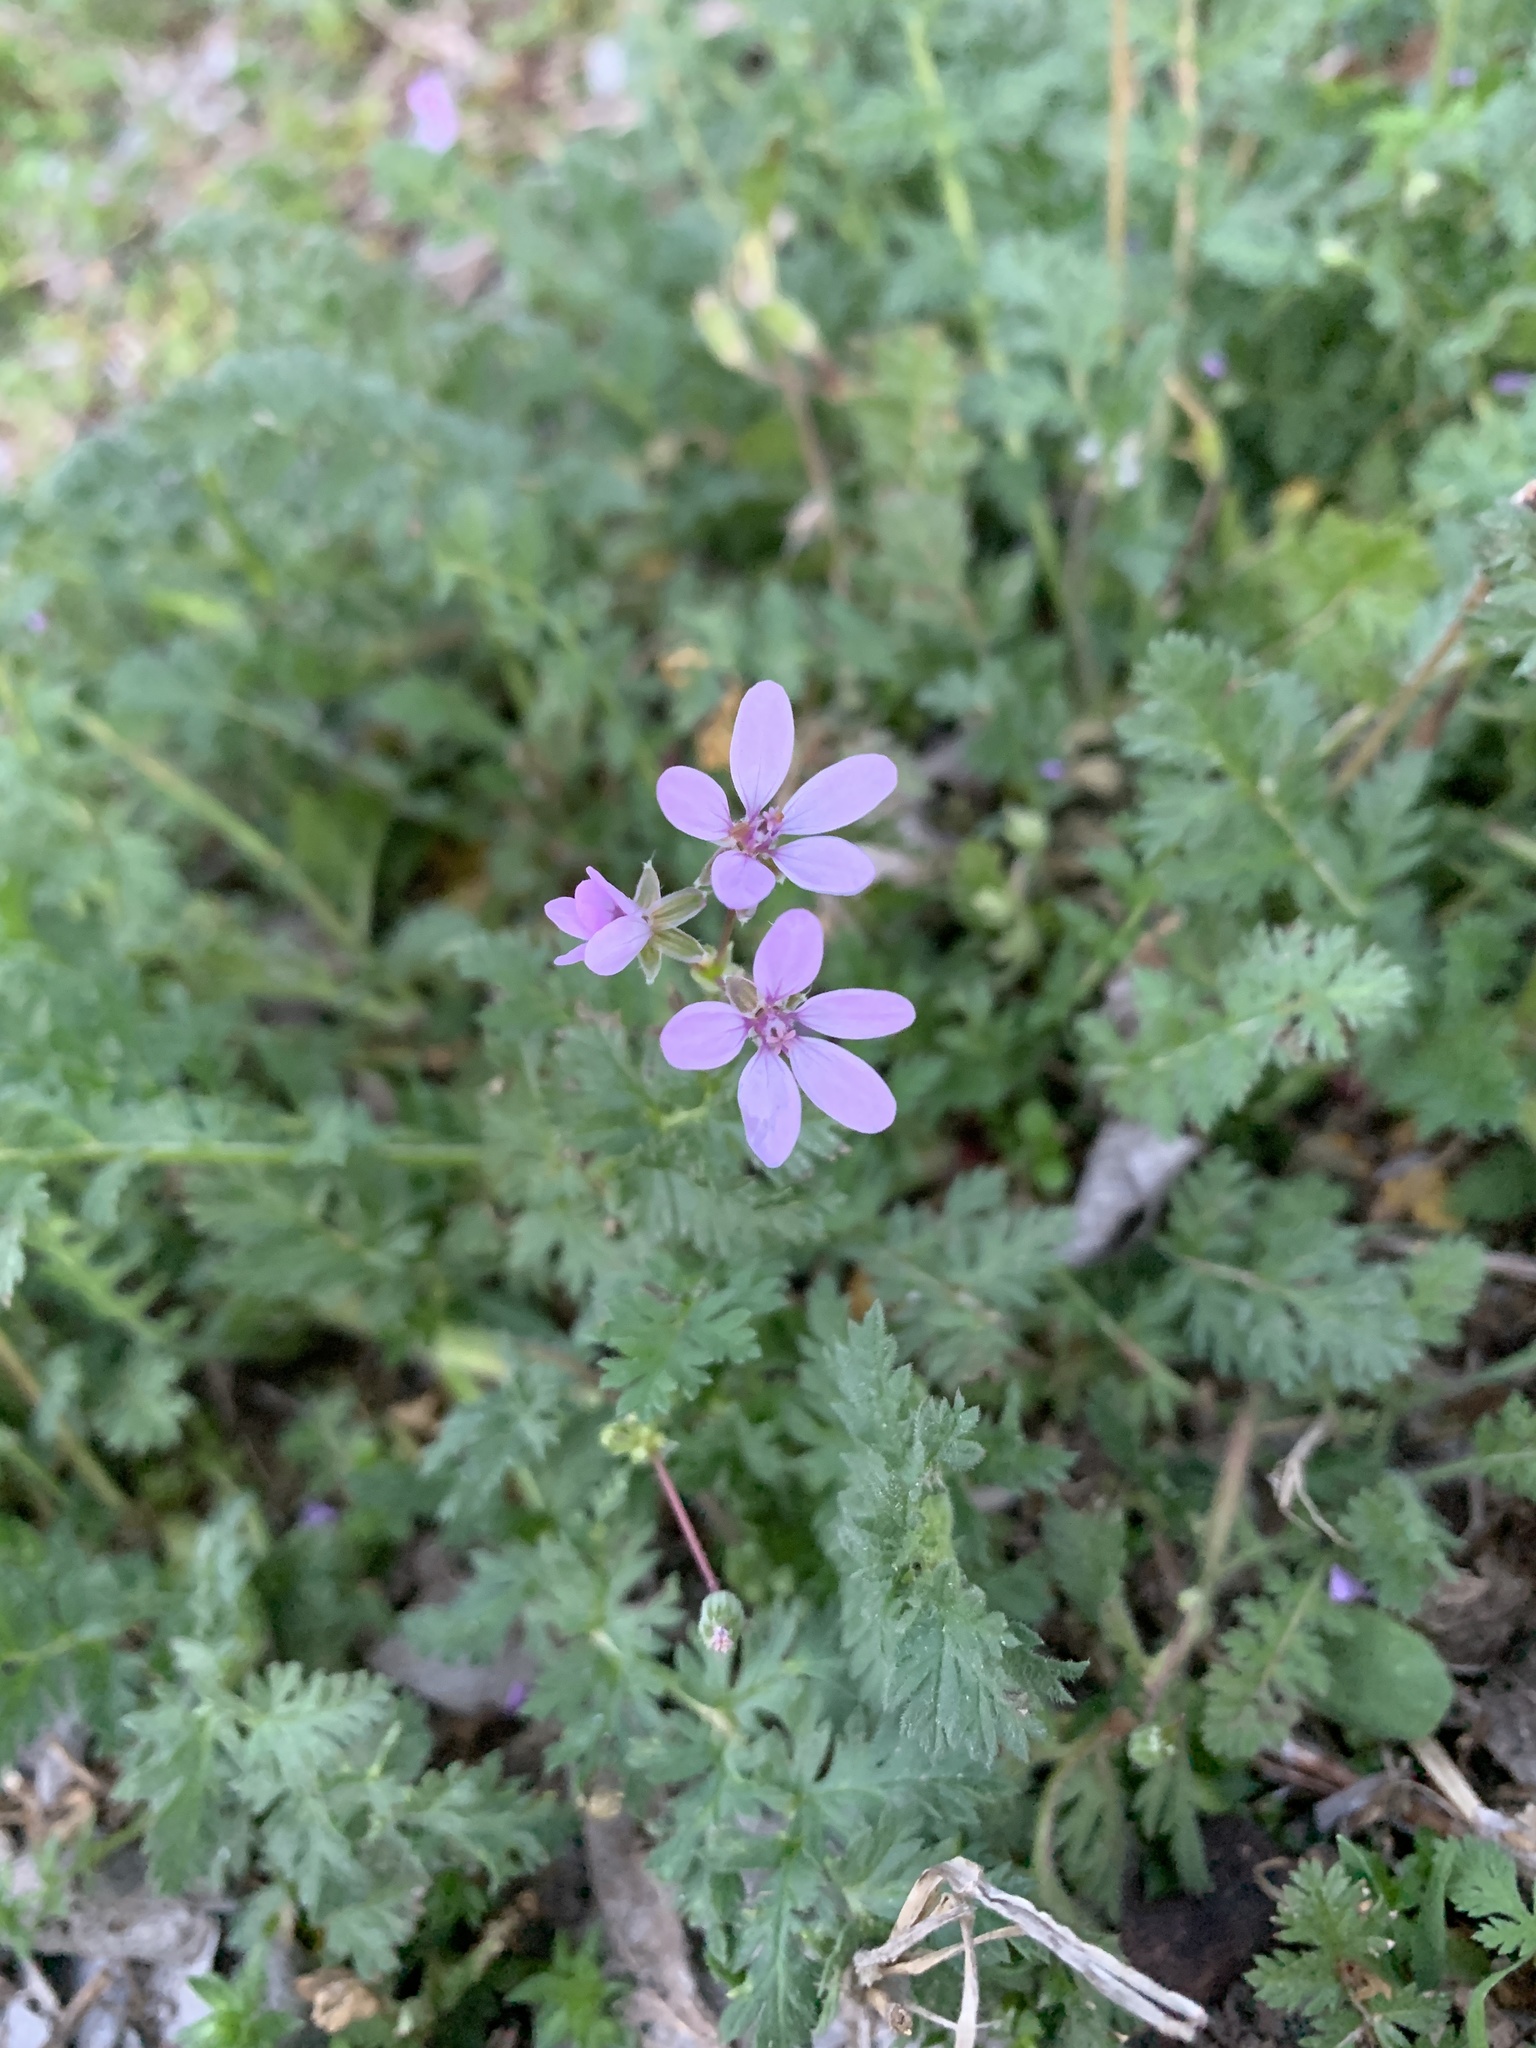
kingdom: Plantae
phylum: Tracheophyta
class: Magnoliopsida
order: Geraniales
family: Geraniaceae
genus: Erodium
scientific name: Erodium cicutarium
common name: Common stork's-bill
